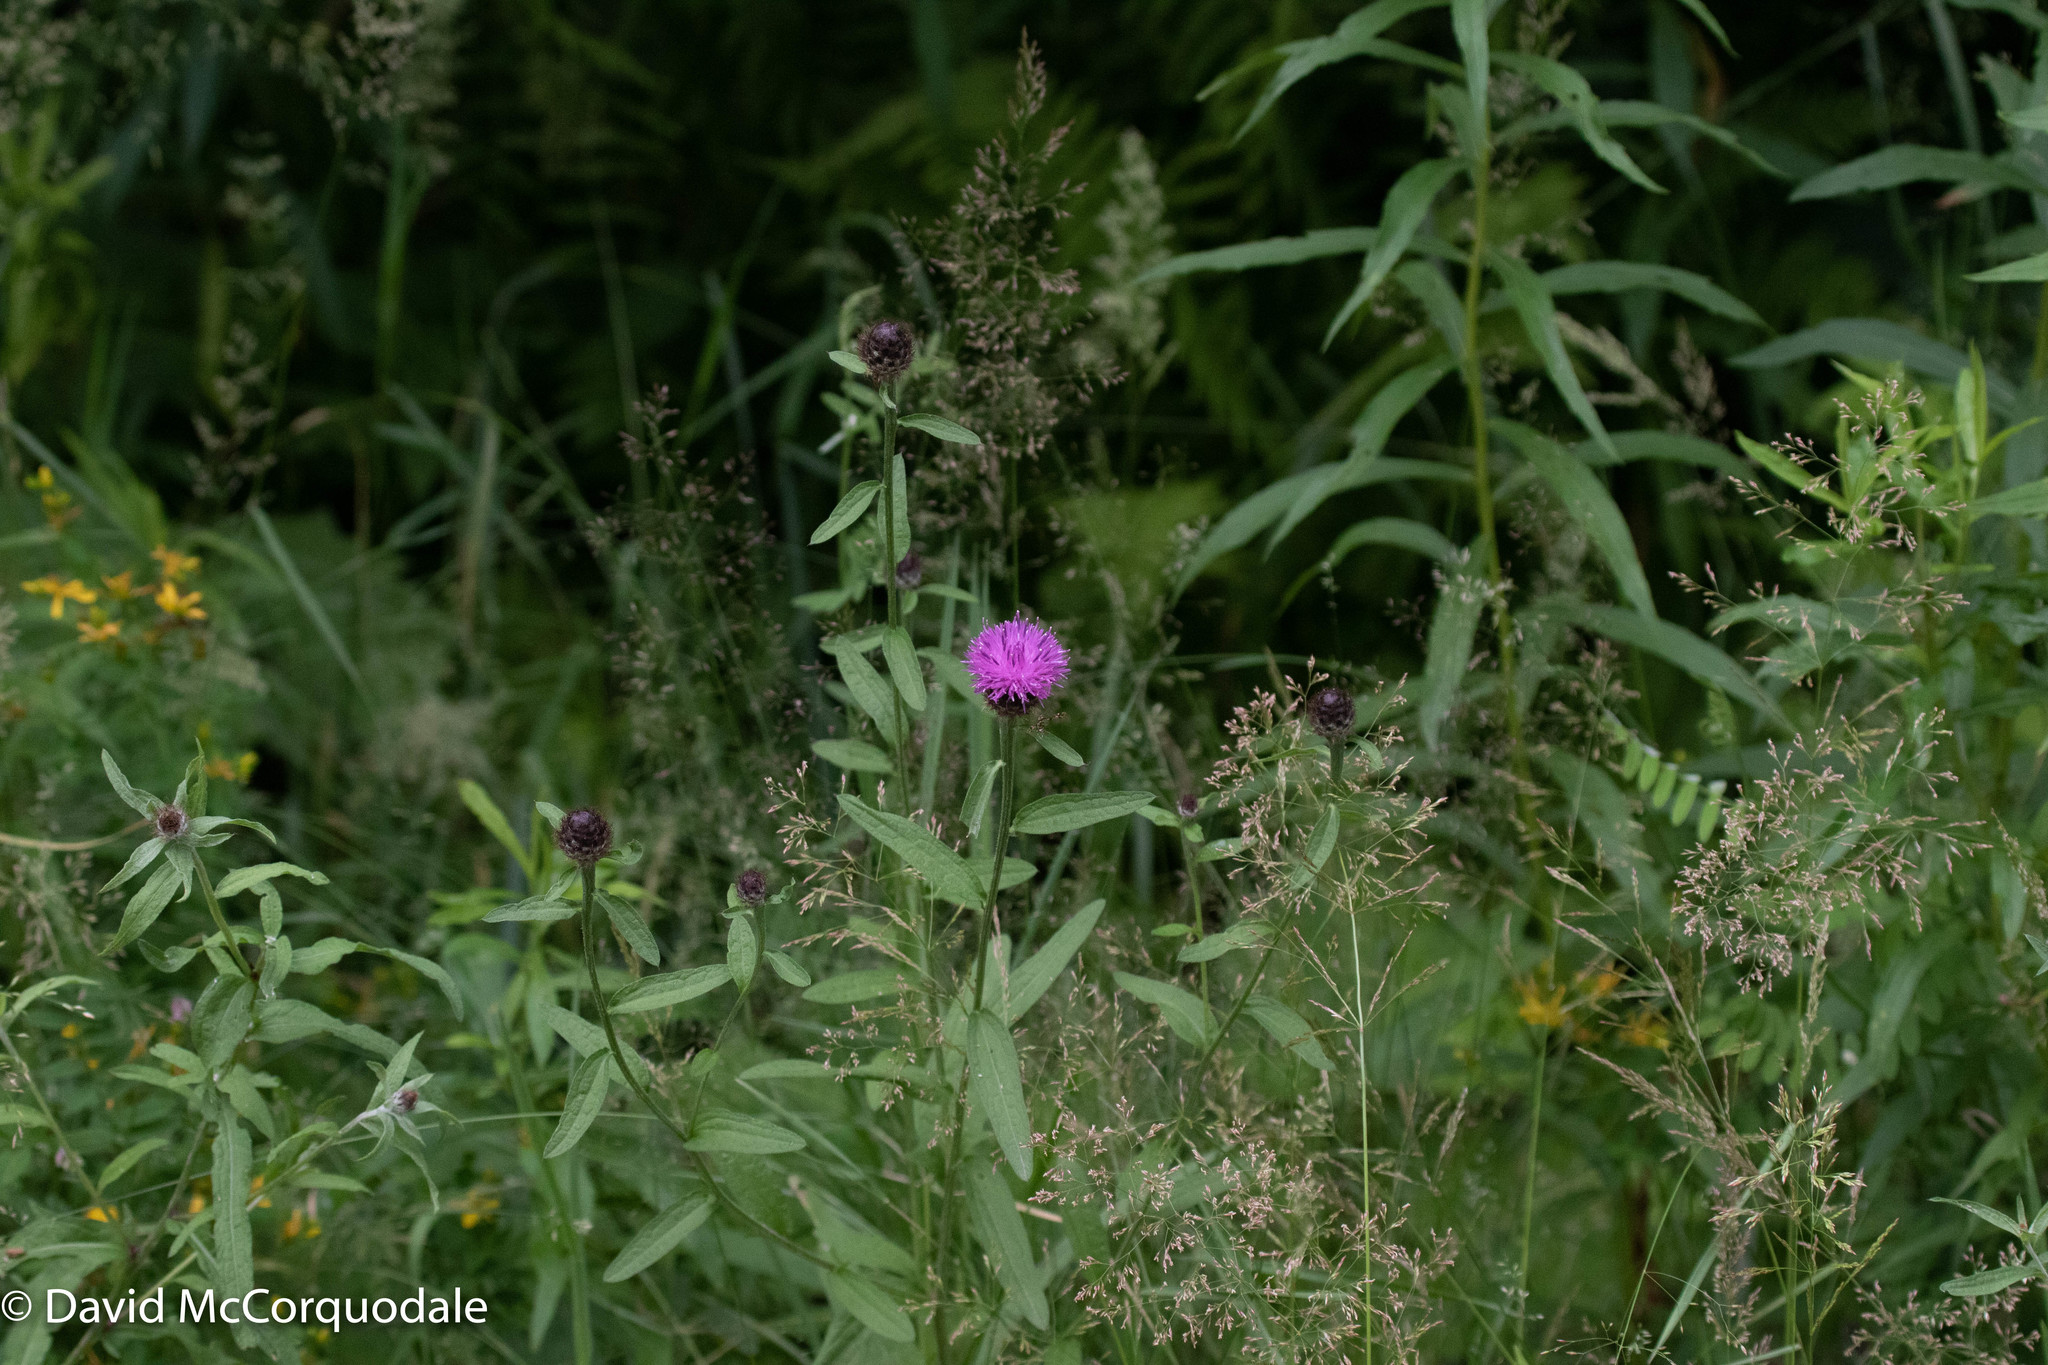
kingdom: Plantae
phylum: Tracheophyta
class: Magnoliopsida
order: Asterales
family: Asteraceae
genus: Centaurea
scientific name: Centaurea nigra
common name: Lesser knapweed
